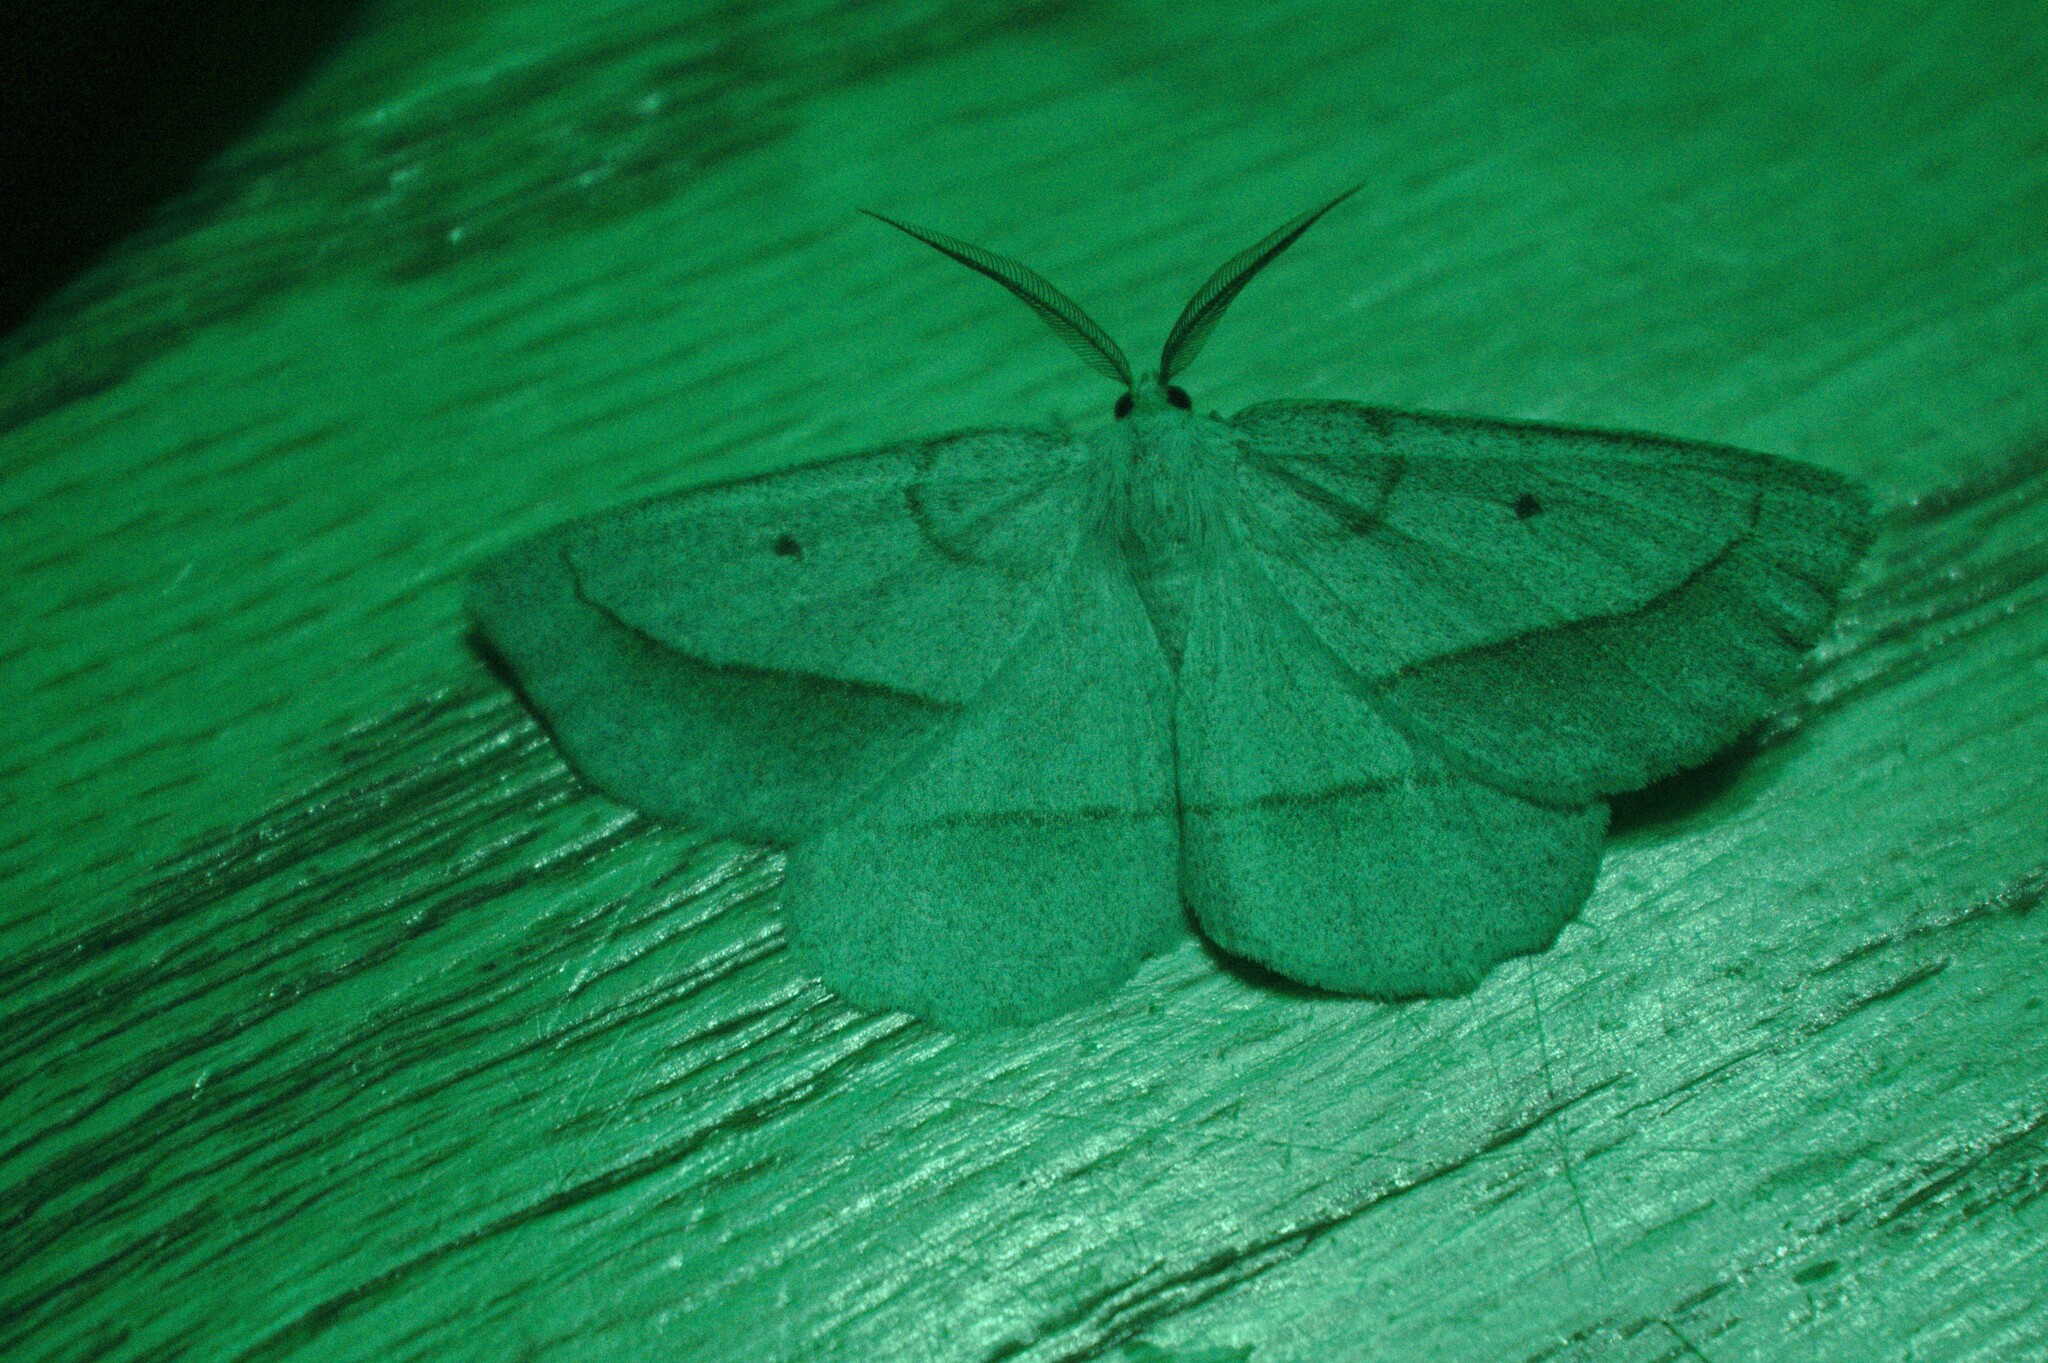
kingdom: Animalia
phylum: Arthropoda
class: Insecta
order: Lepidoptera
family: Geometridae
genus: Euchlaena
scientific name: Euchlaena irraria
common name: Least-marked euchlaena
